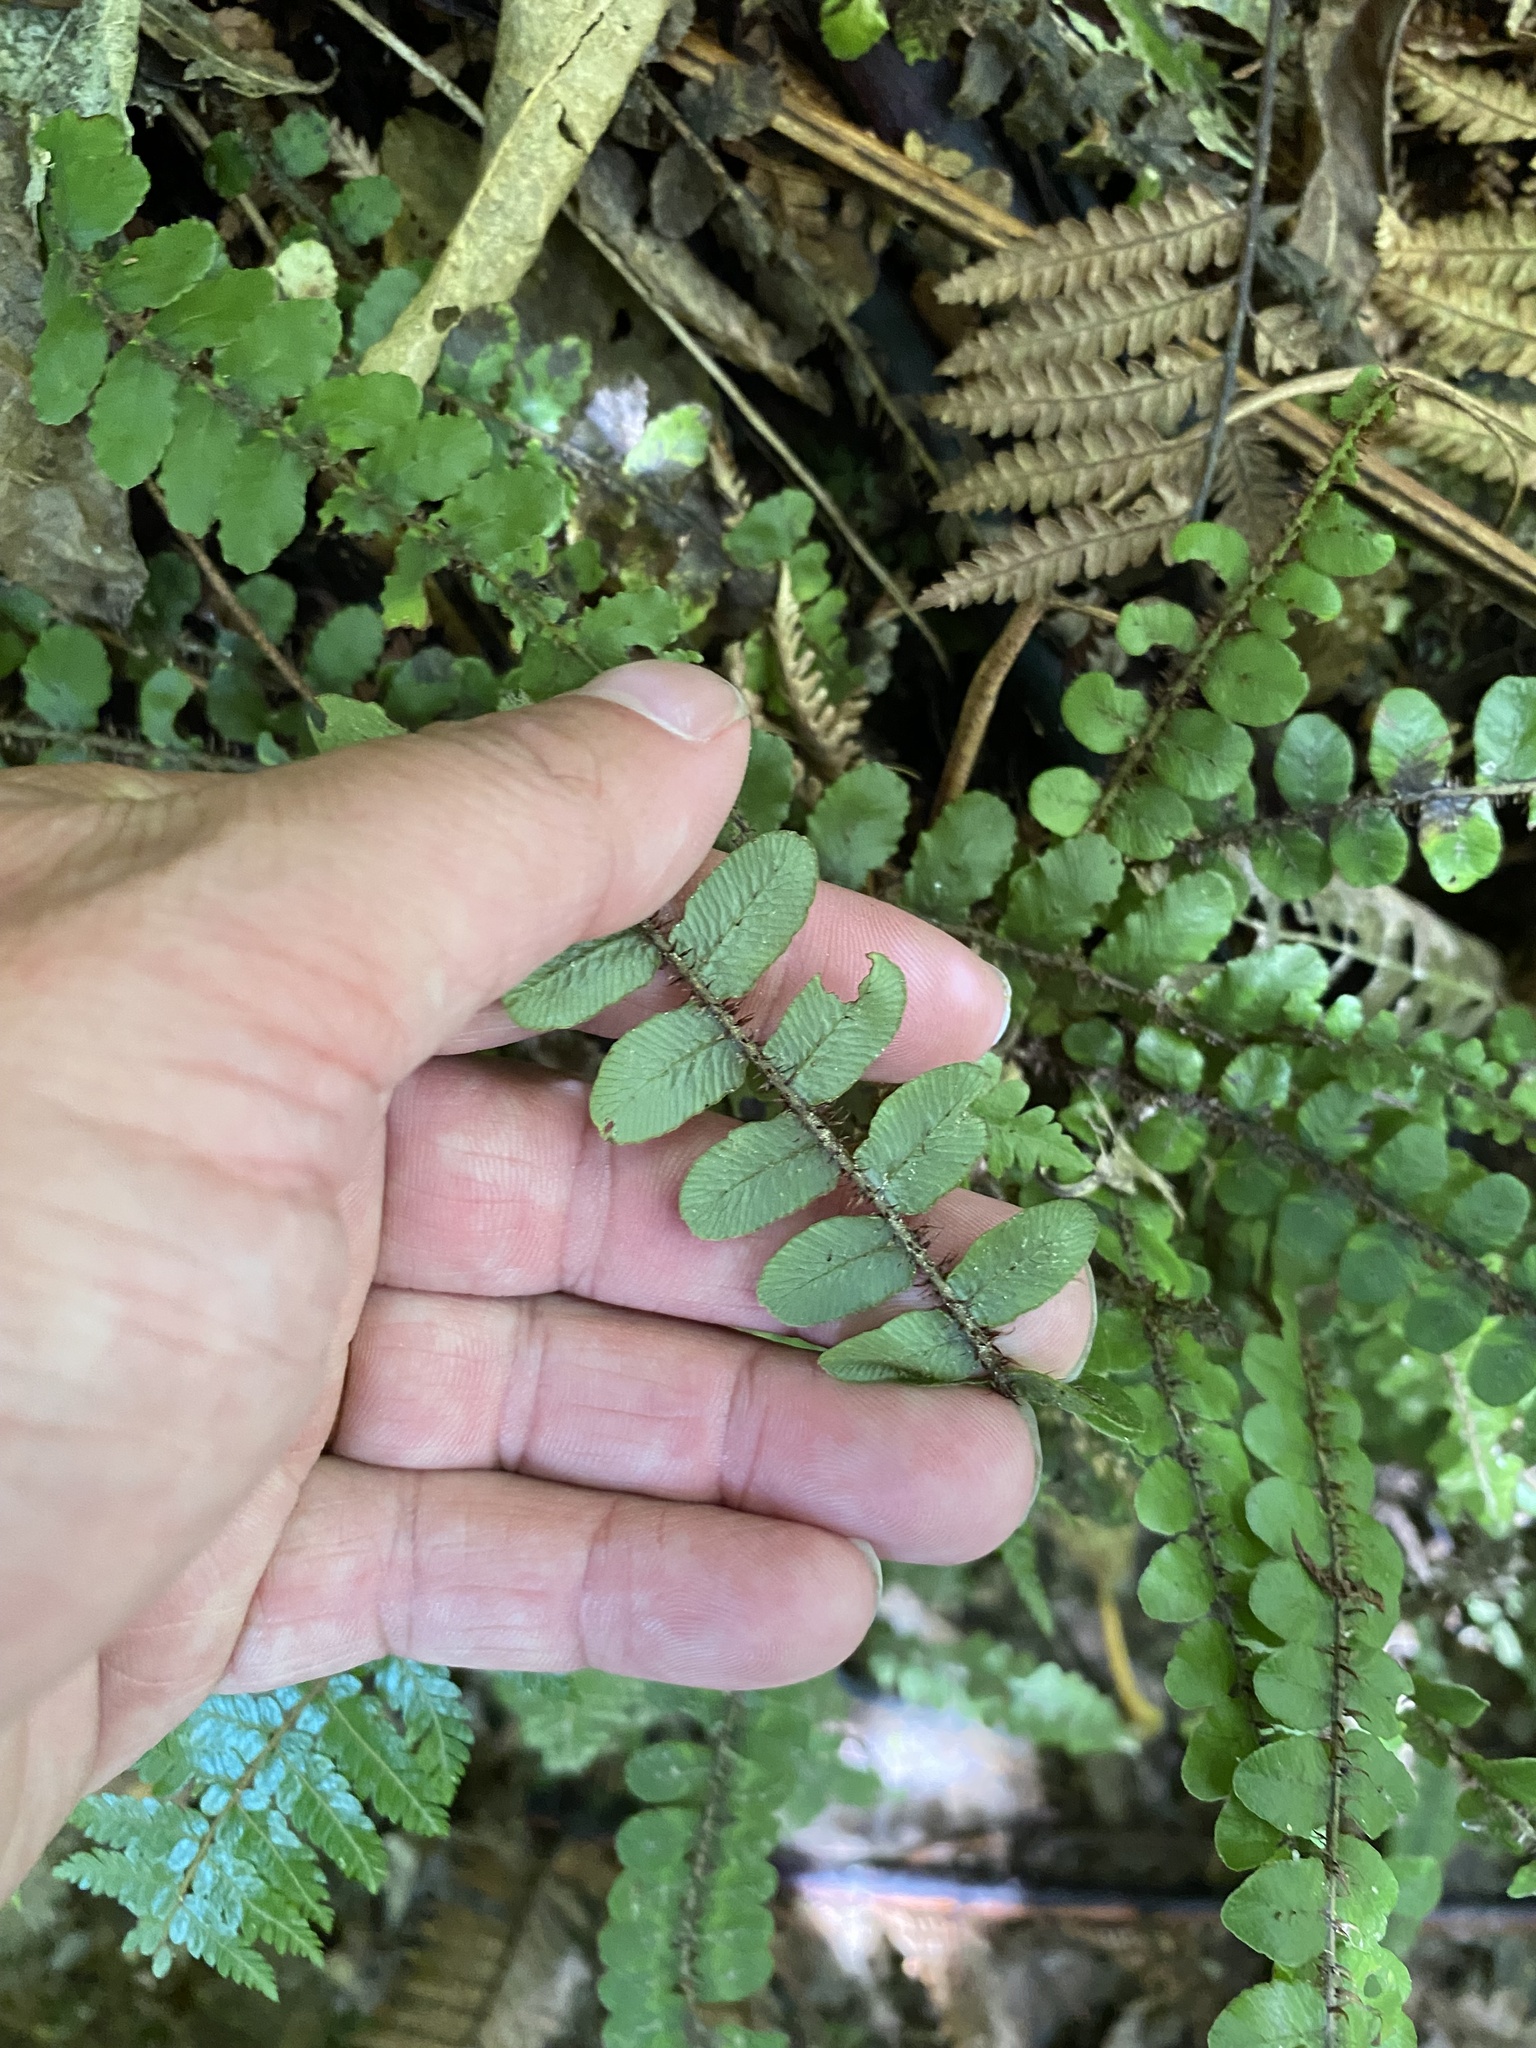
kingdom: Plantae
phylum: Tracheophyta
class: Polypodiopsida
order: Polypodiales
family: Blechnaceae
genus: Cranfillia
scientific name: Cranfillia fluviatilis
